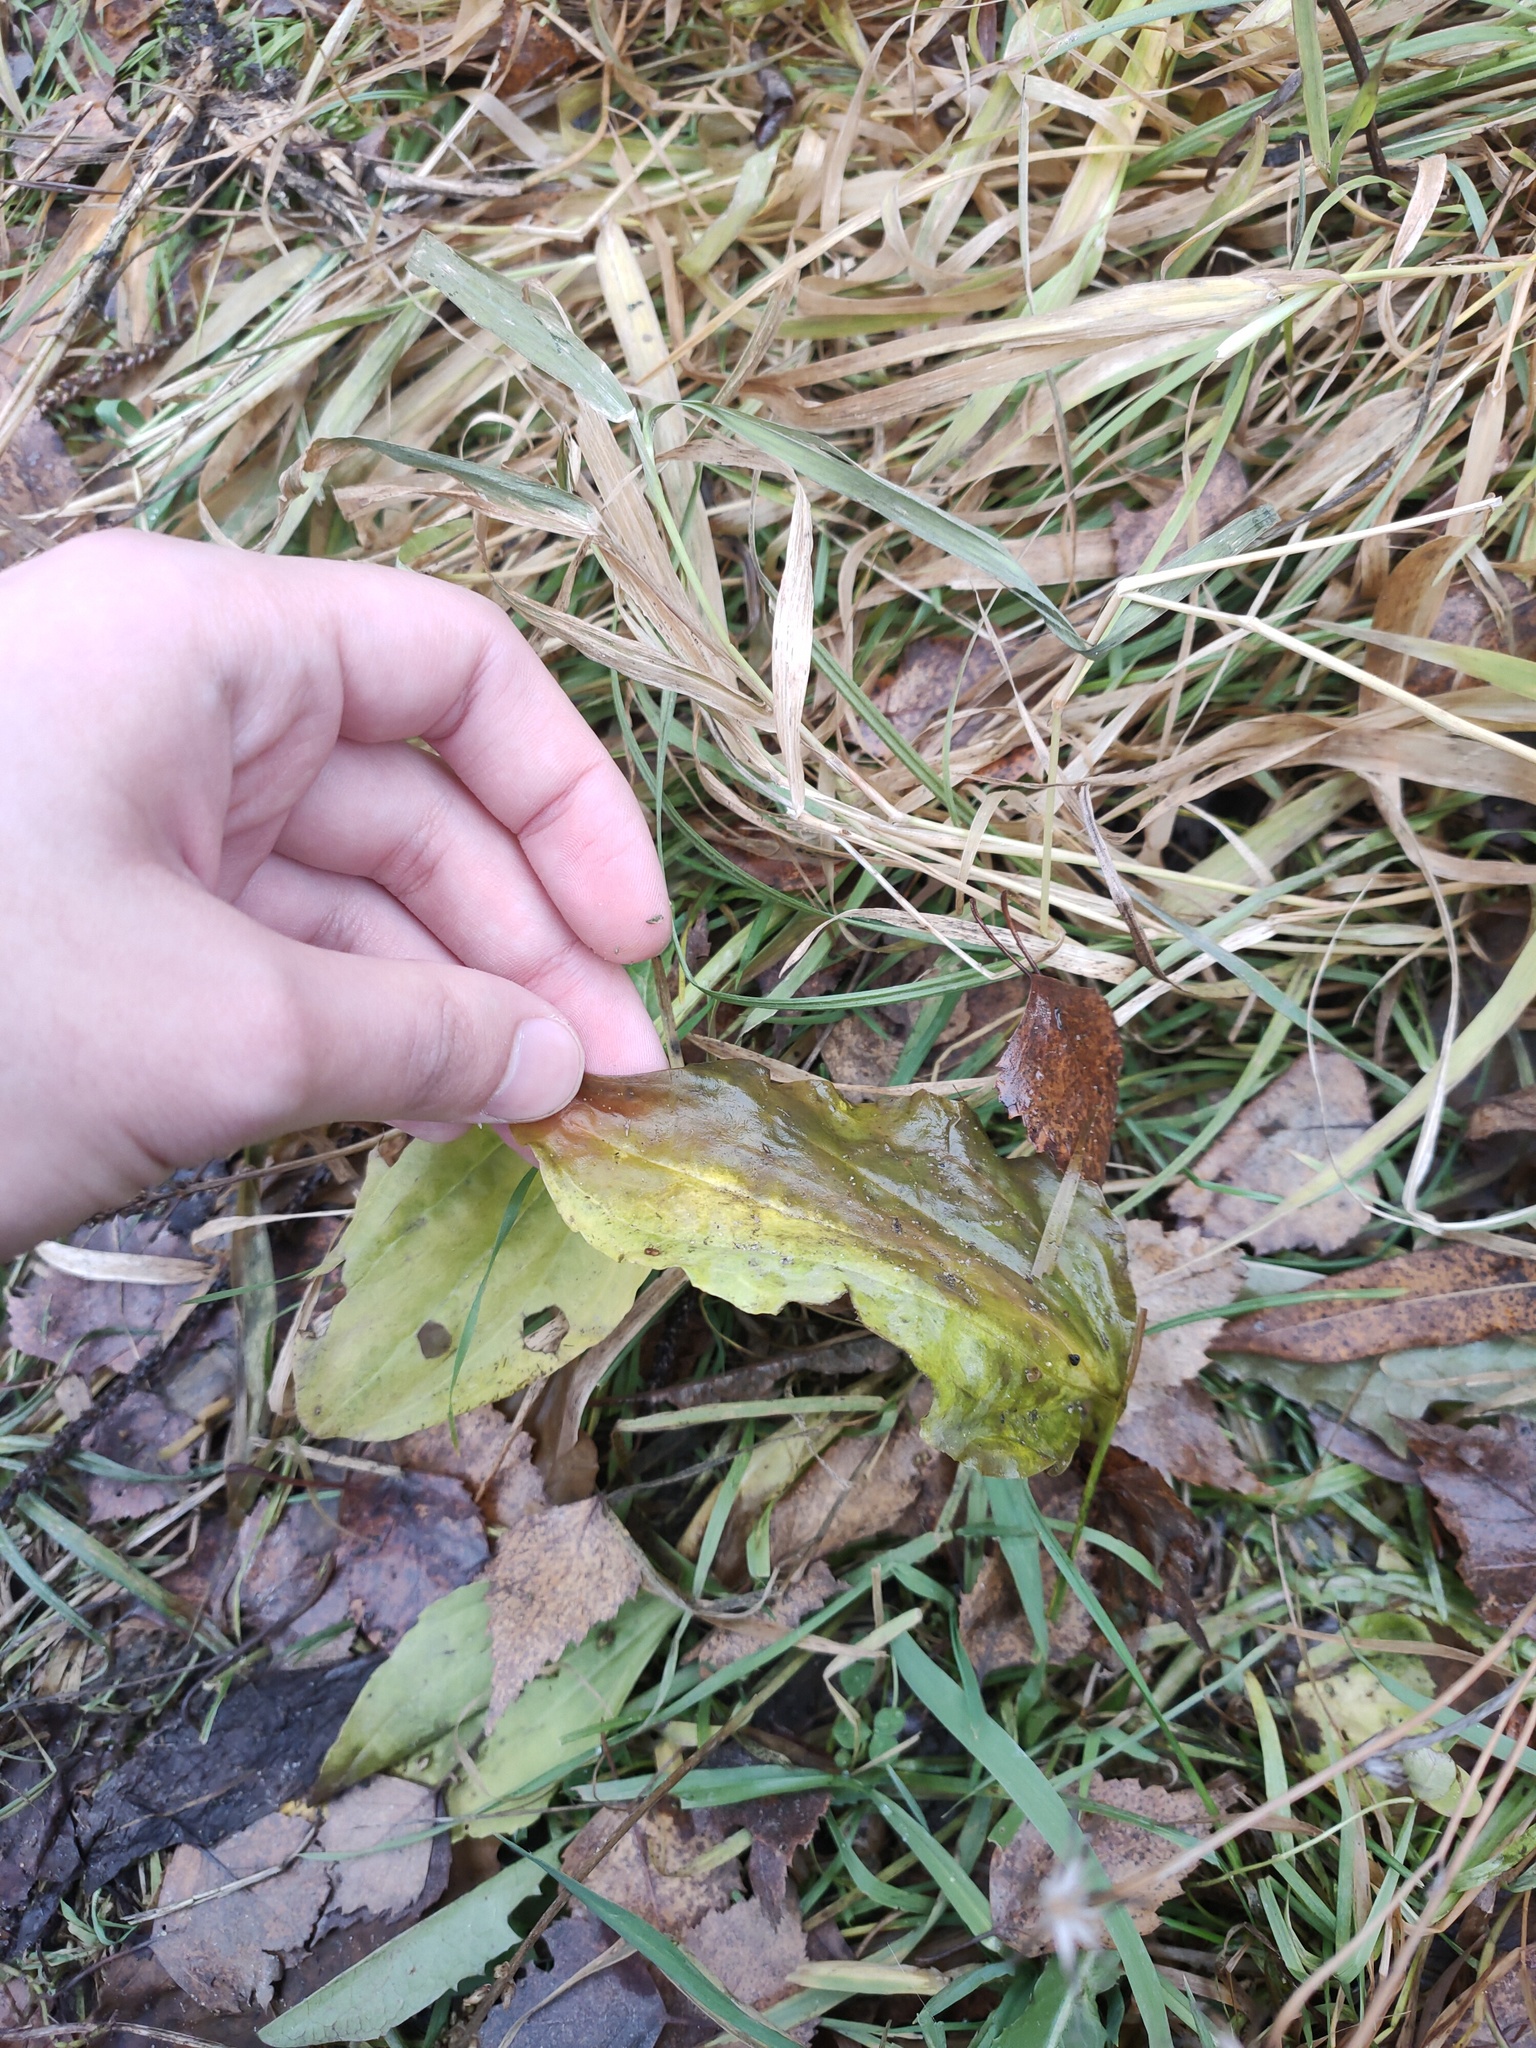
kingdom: Plantae
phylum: Tracheophyta
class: Magnoliopsida
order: Lamiales
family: Plantaginaceae
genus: Plantago
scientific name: Plantago major
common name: Common plantain
